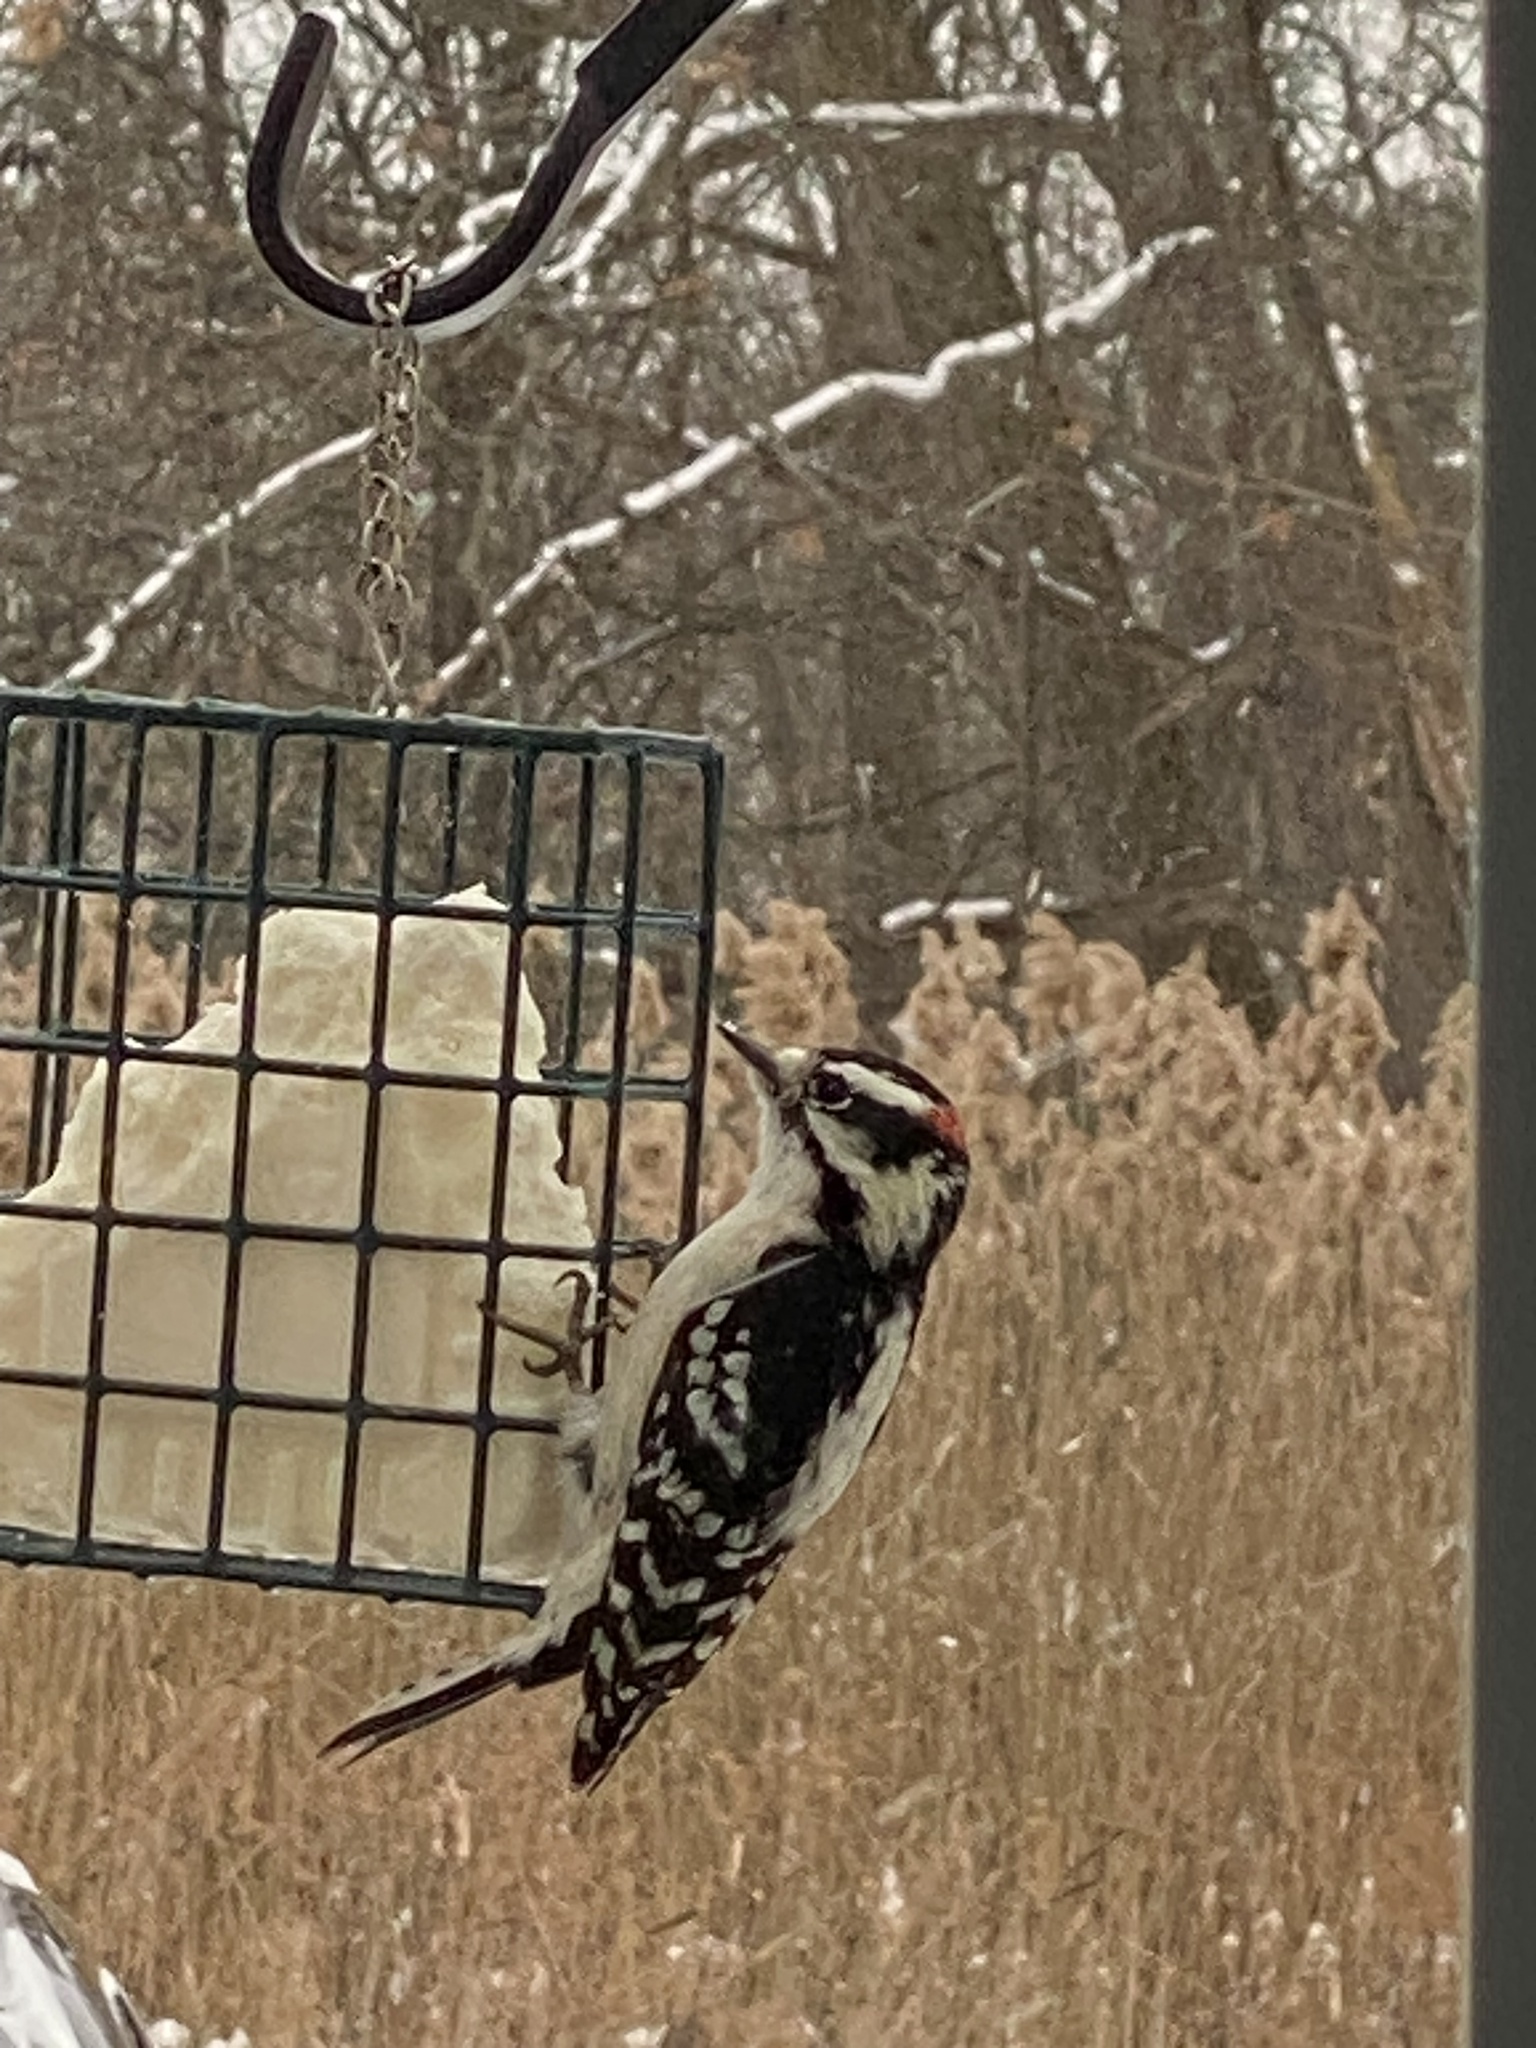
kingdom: Animalia
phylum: Chordata
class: Aves
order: Piciformes
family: Picidae
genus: Dryobates
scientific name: Dryobates pubescens
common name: Downy woodpecker
